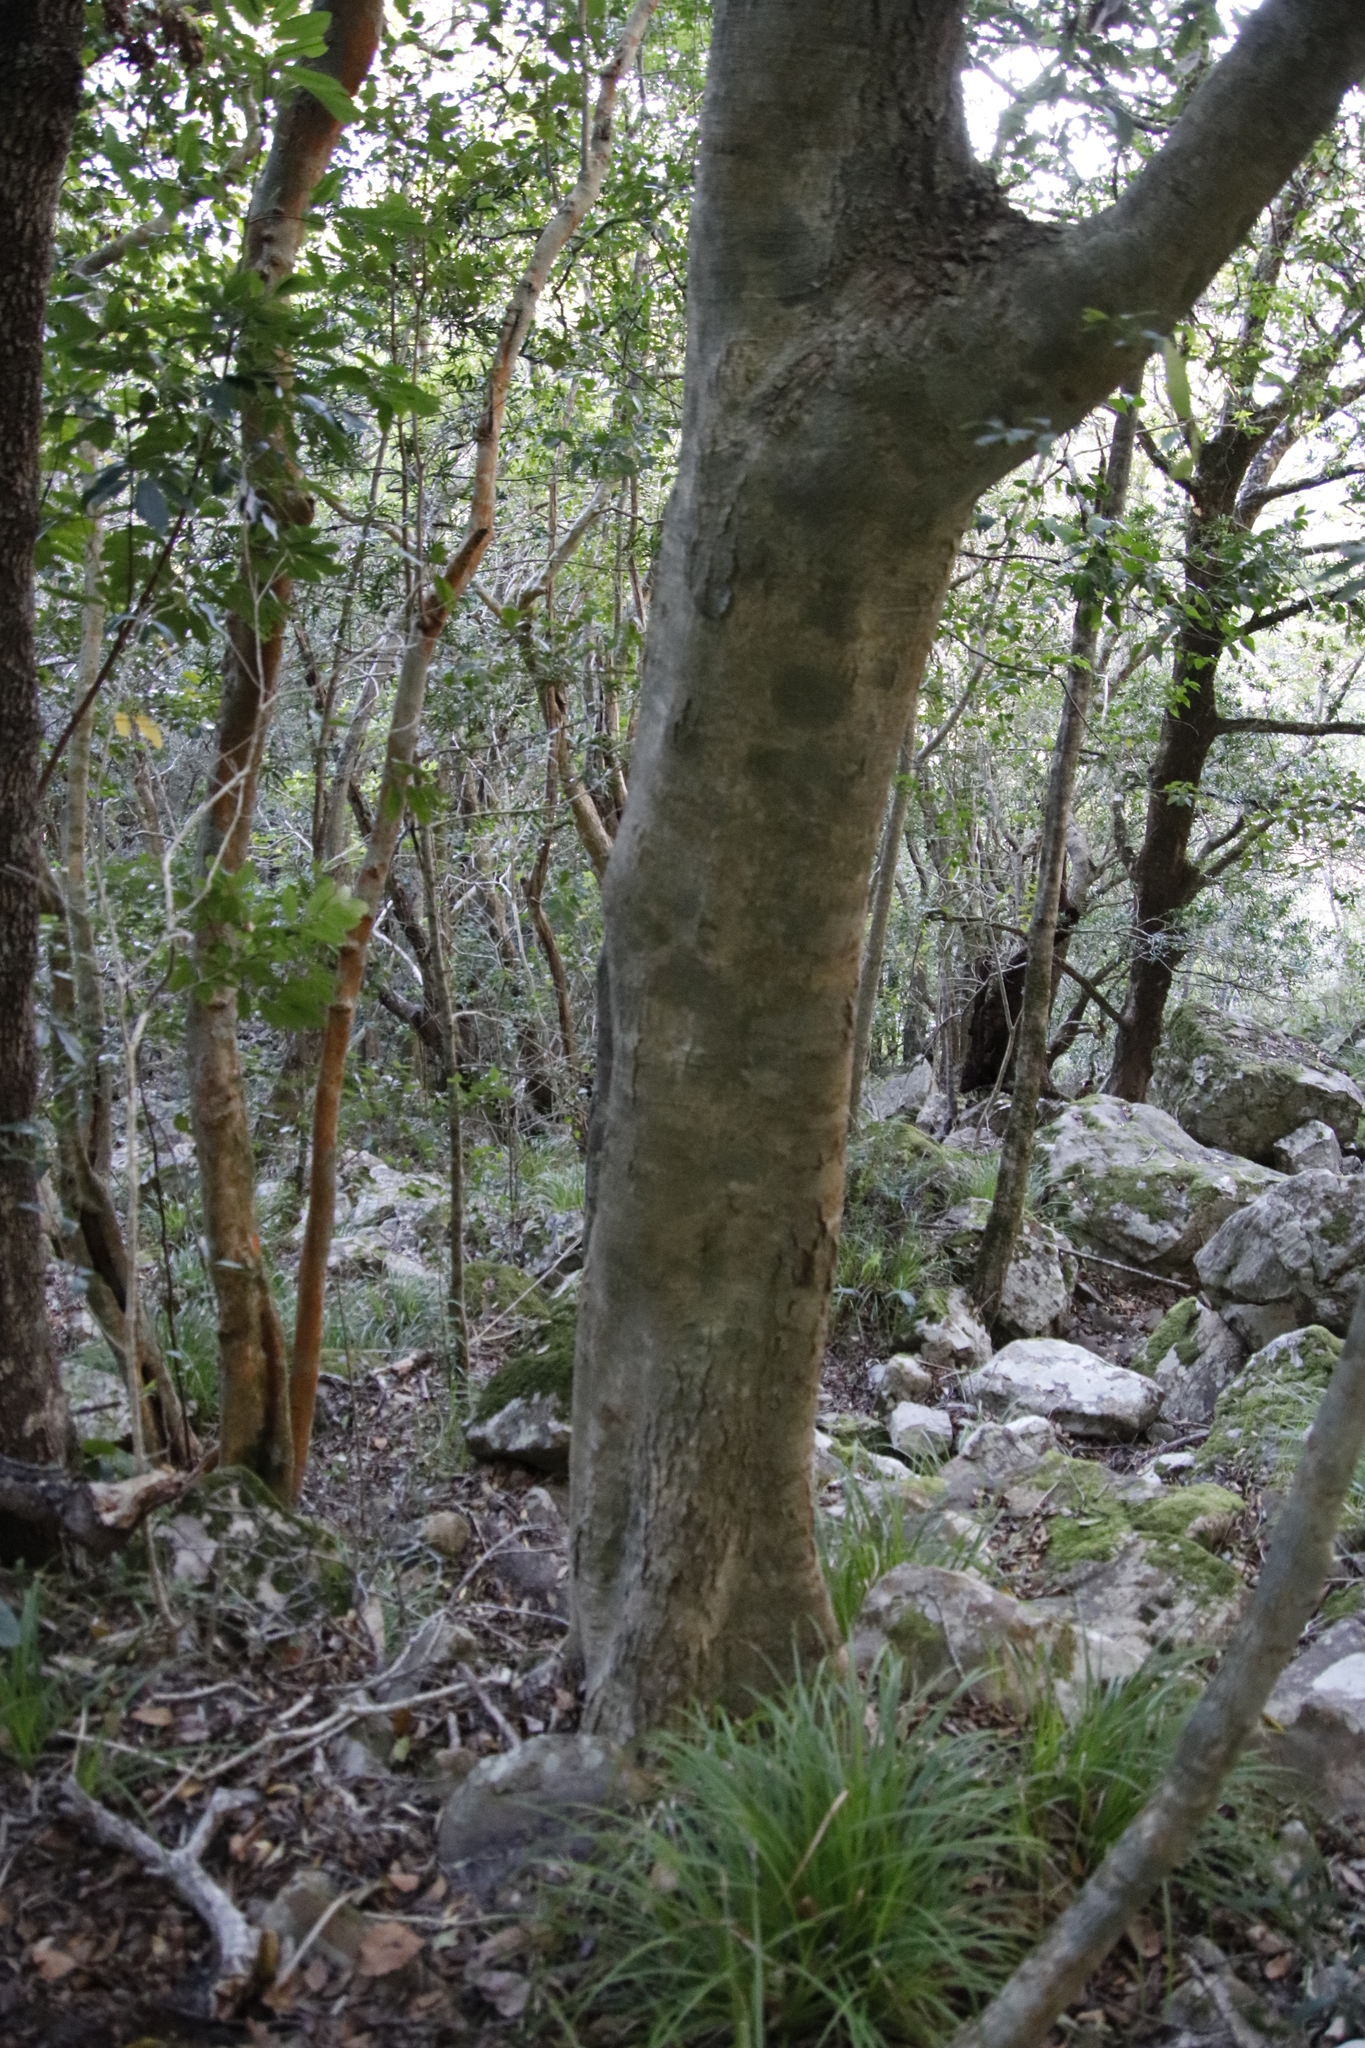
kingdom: Plantae
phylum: Tracheophyta
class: Magnoliopsida
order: Aquifoliales
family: Aquifoliaceae
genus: Ilex
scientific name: Ilex mitis
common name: African holly
